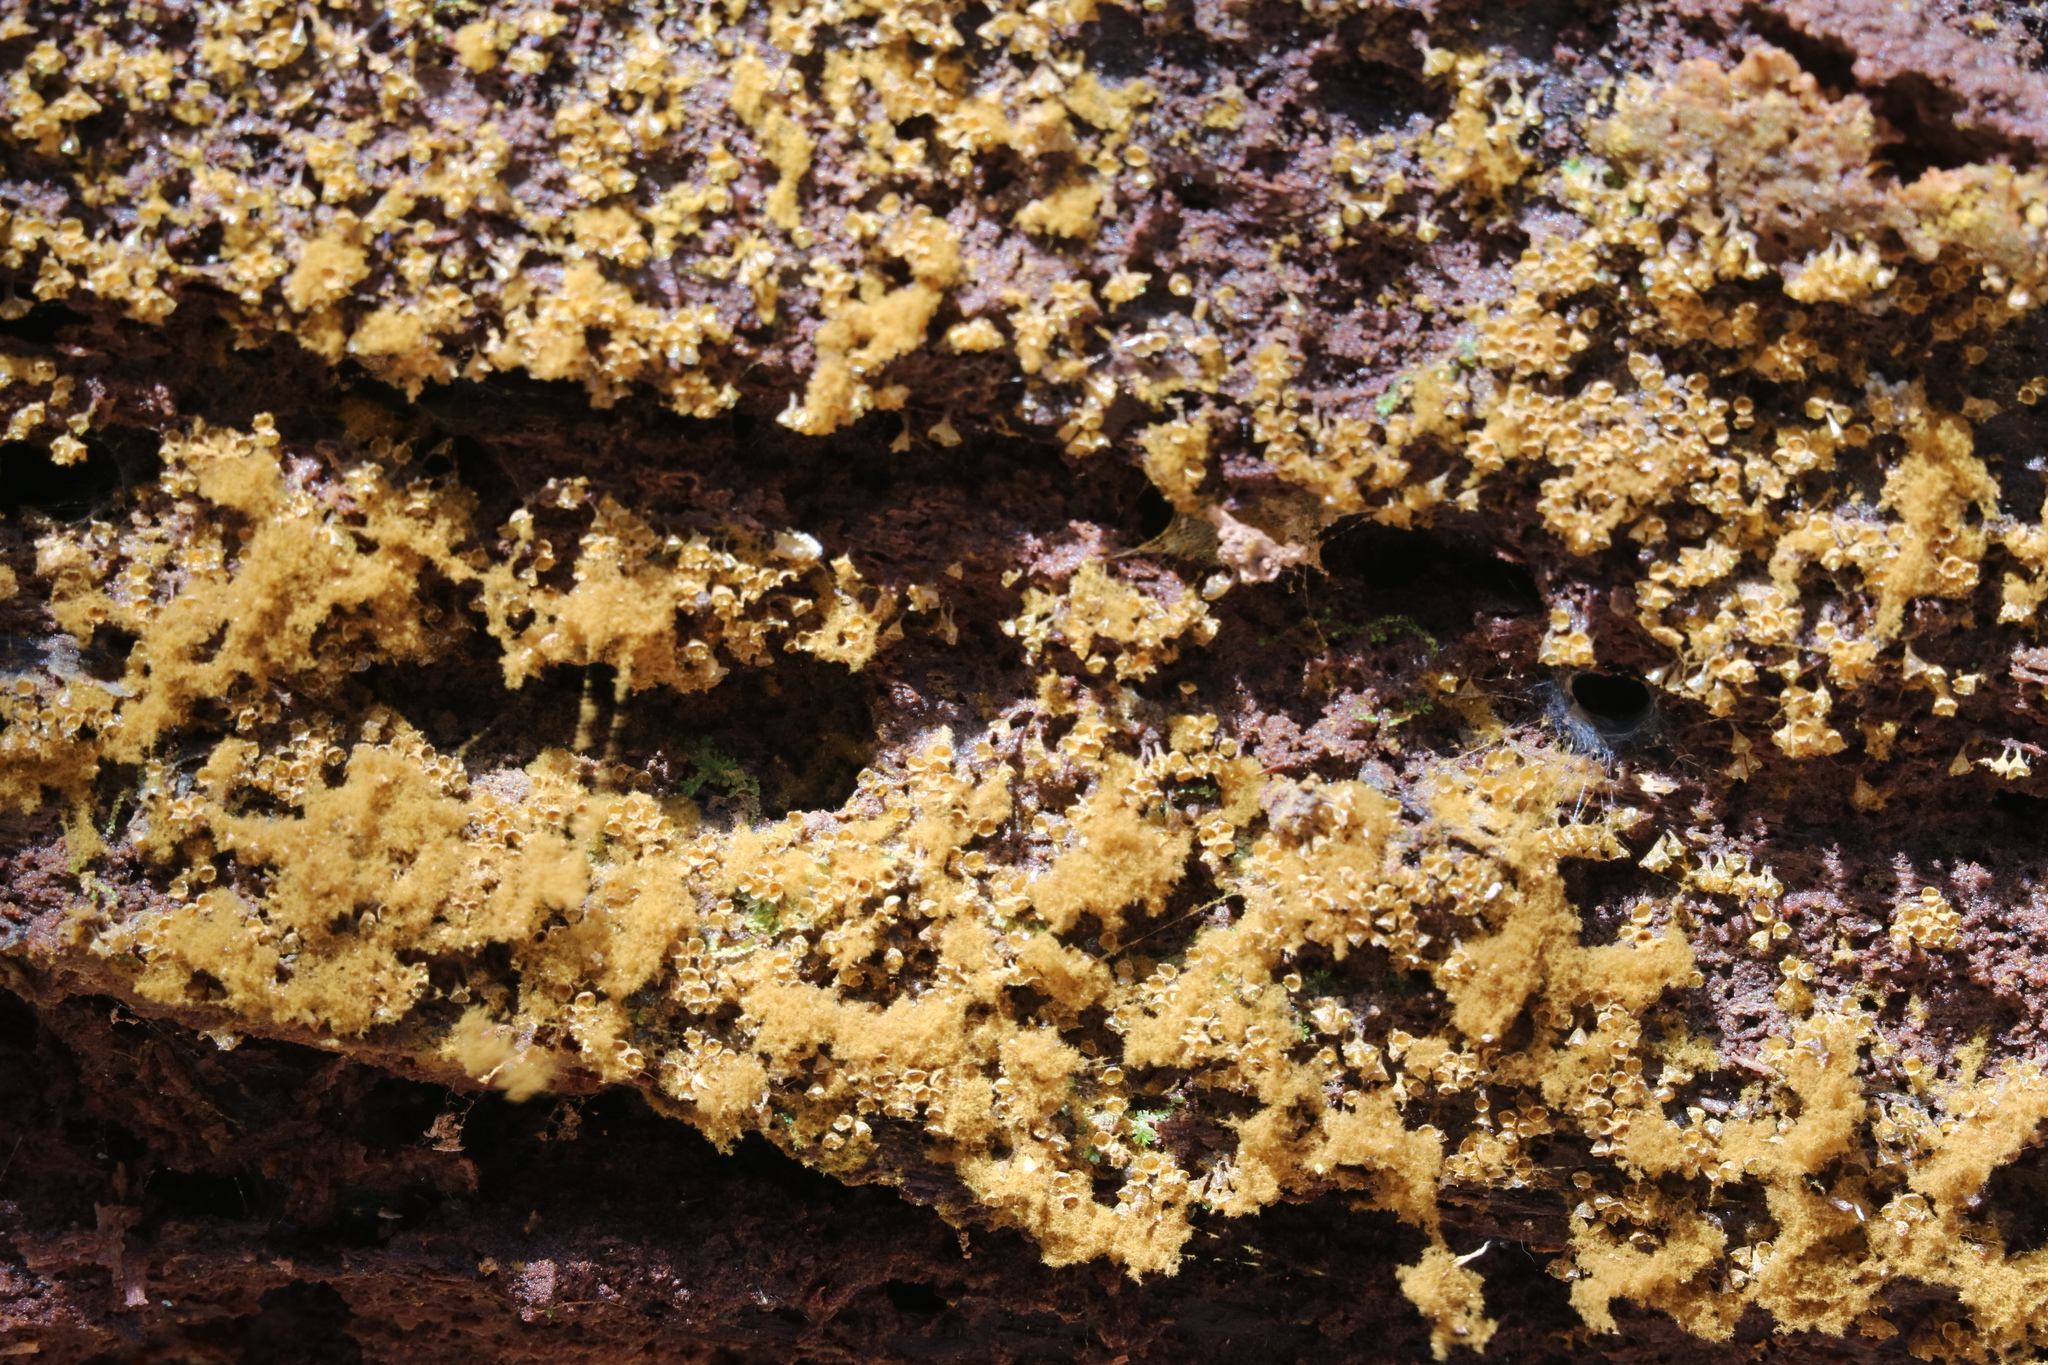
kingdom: Protozoa
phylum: Mycetozoa
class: Myxomycetes
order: Trichiales
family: Arcyriaceae
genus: Hemitrichia
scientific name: Hemitrichia decipiens
